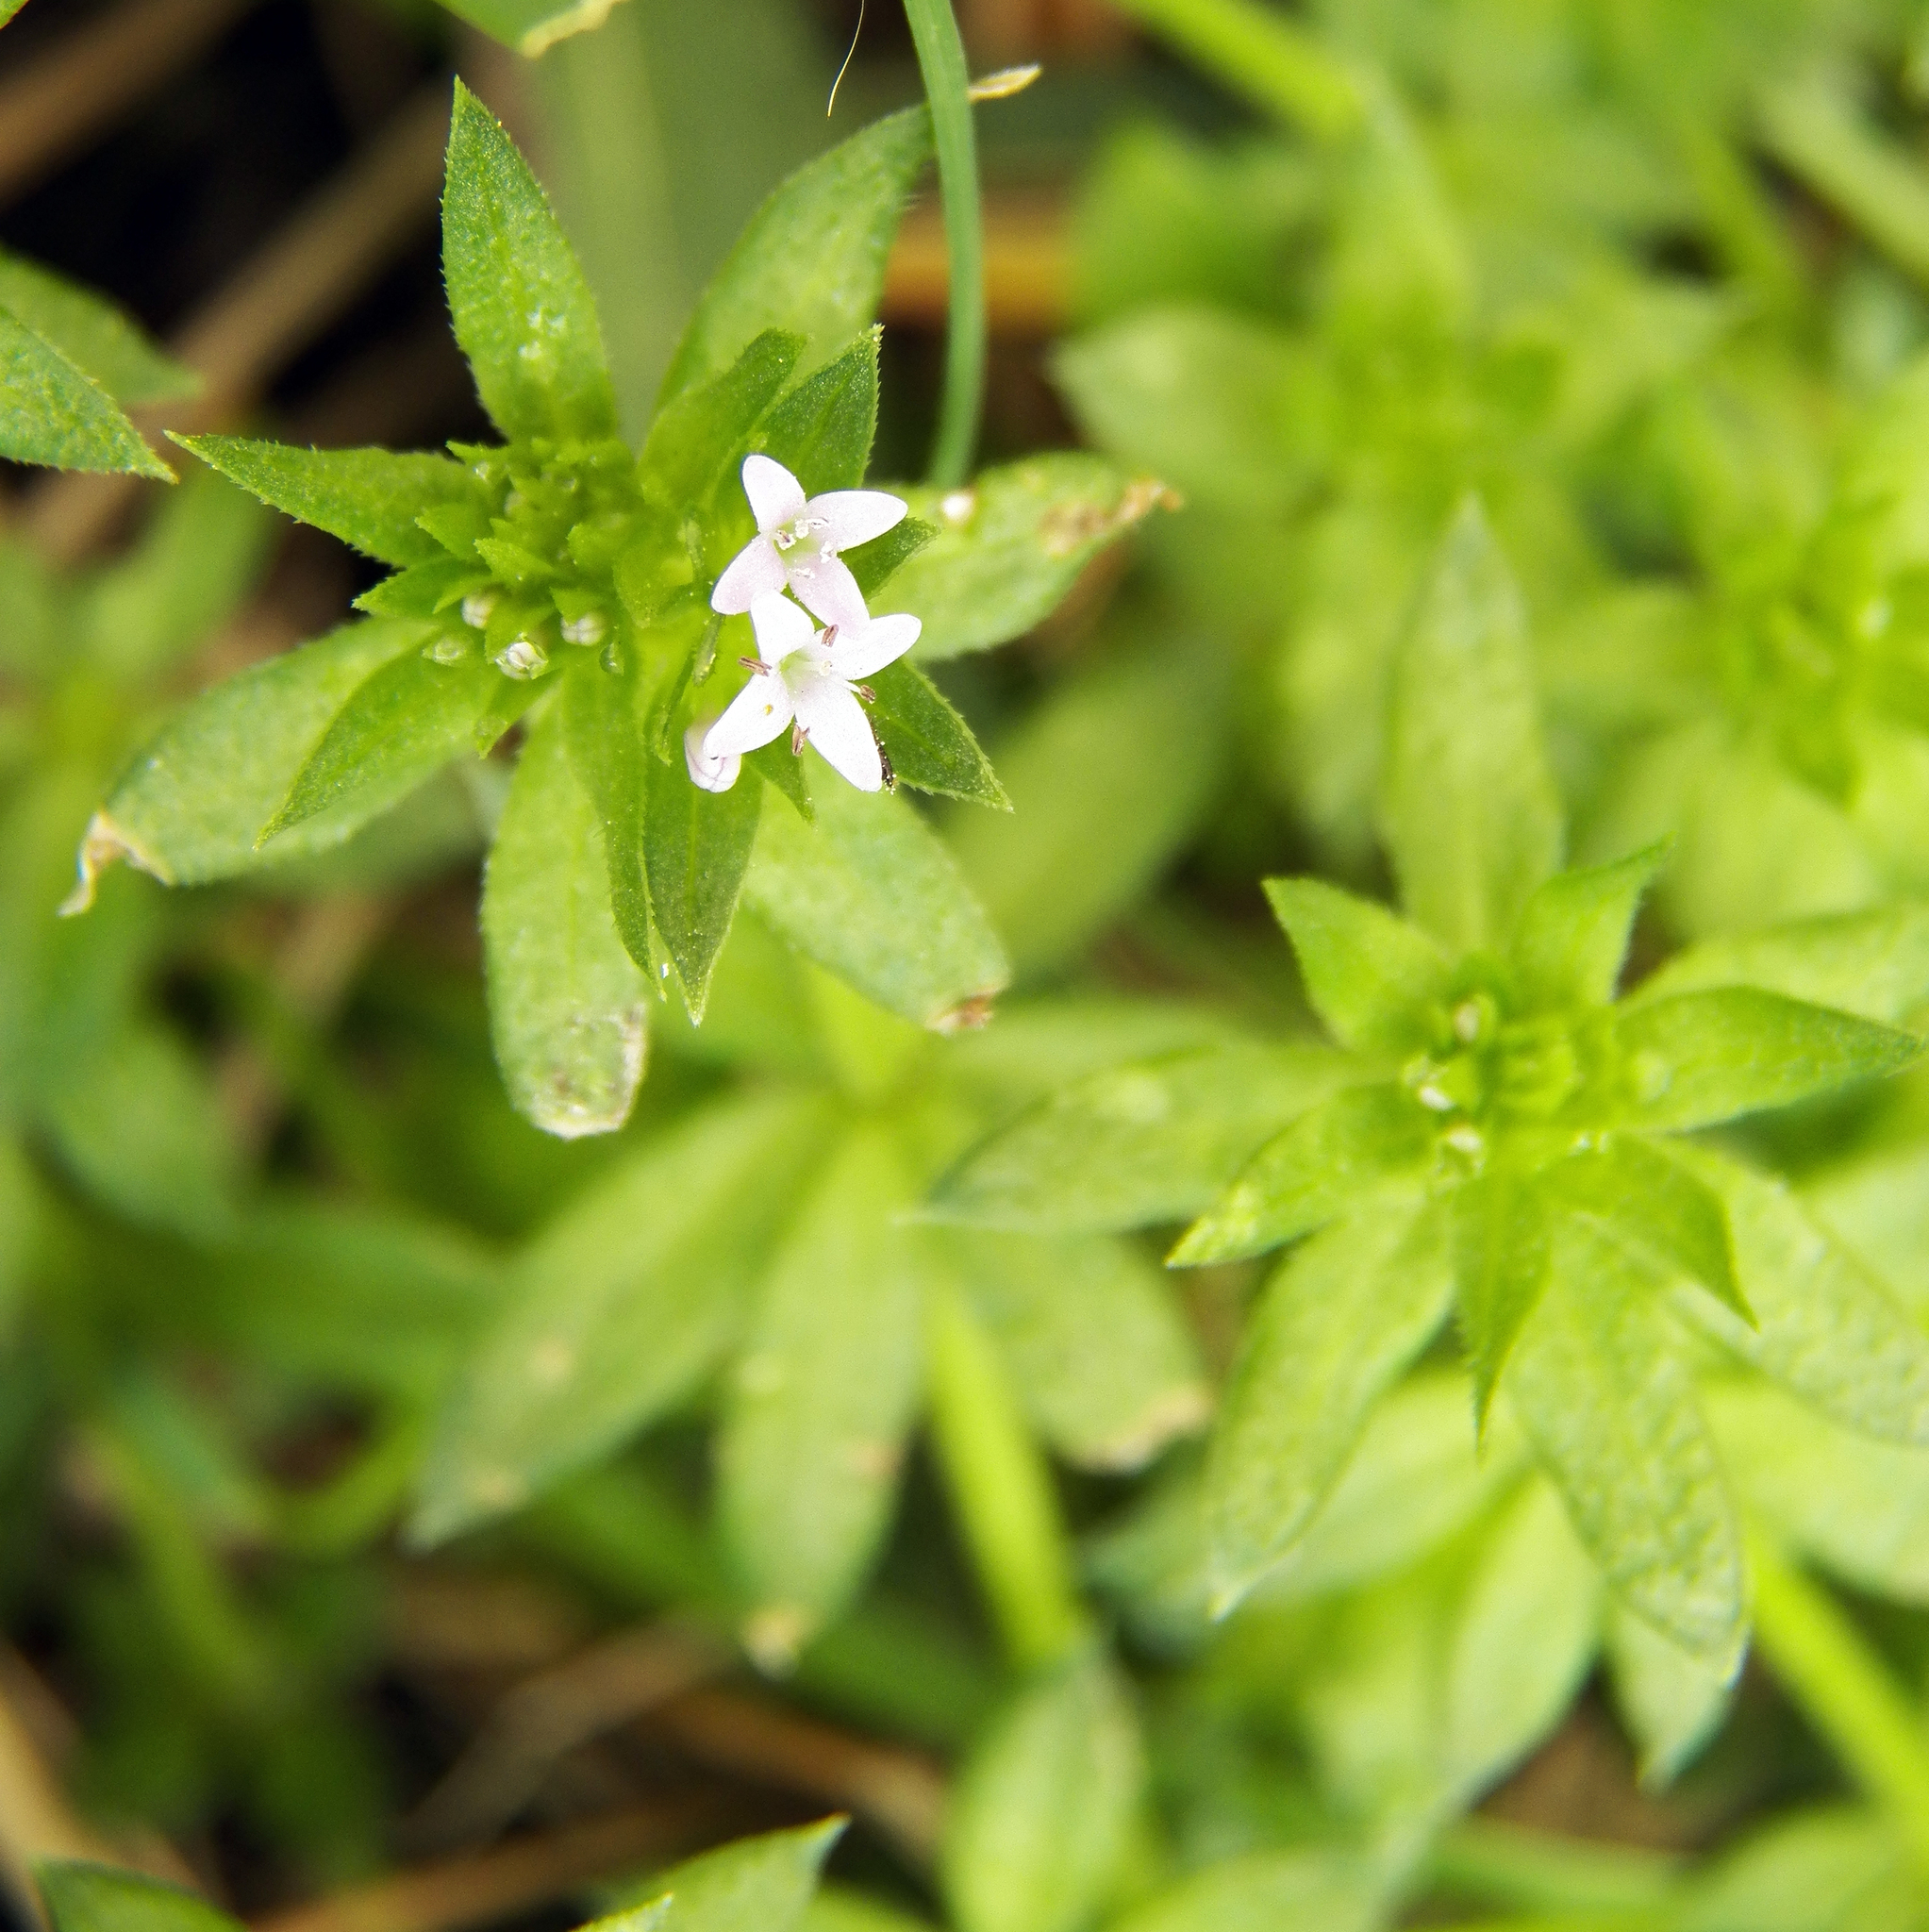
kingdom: Plantae
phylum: Tracheophyta
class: Magnoliopsida
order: Gentianales
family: Rubiaceae
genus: Sherardia
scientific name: Sherardia arvensis
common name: Field madder
